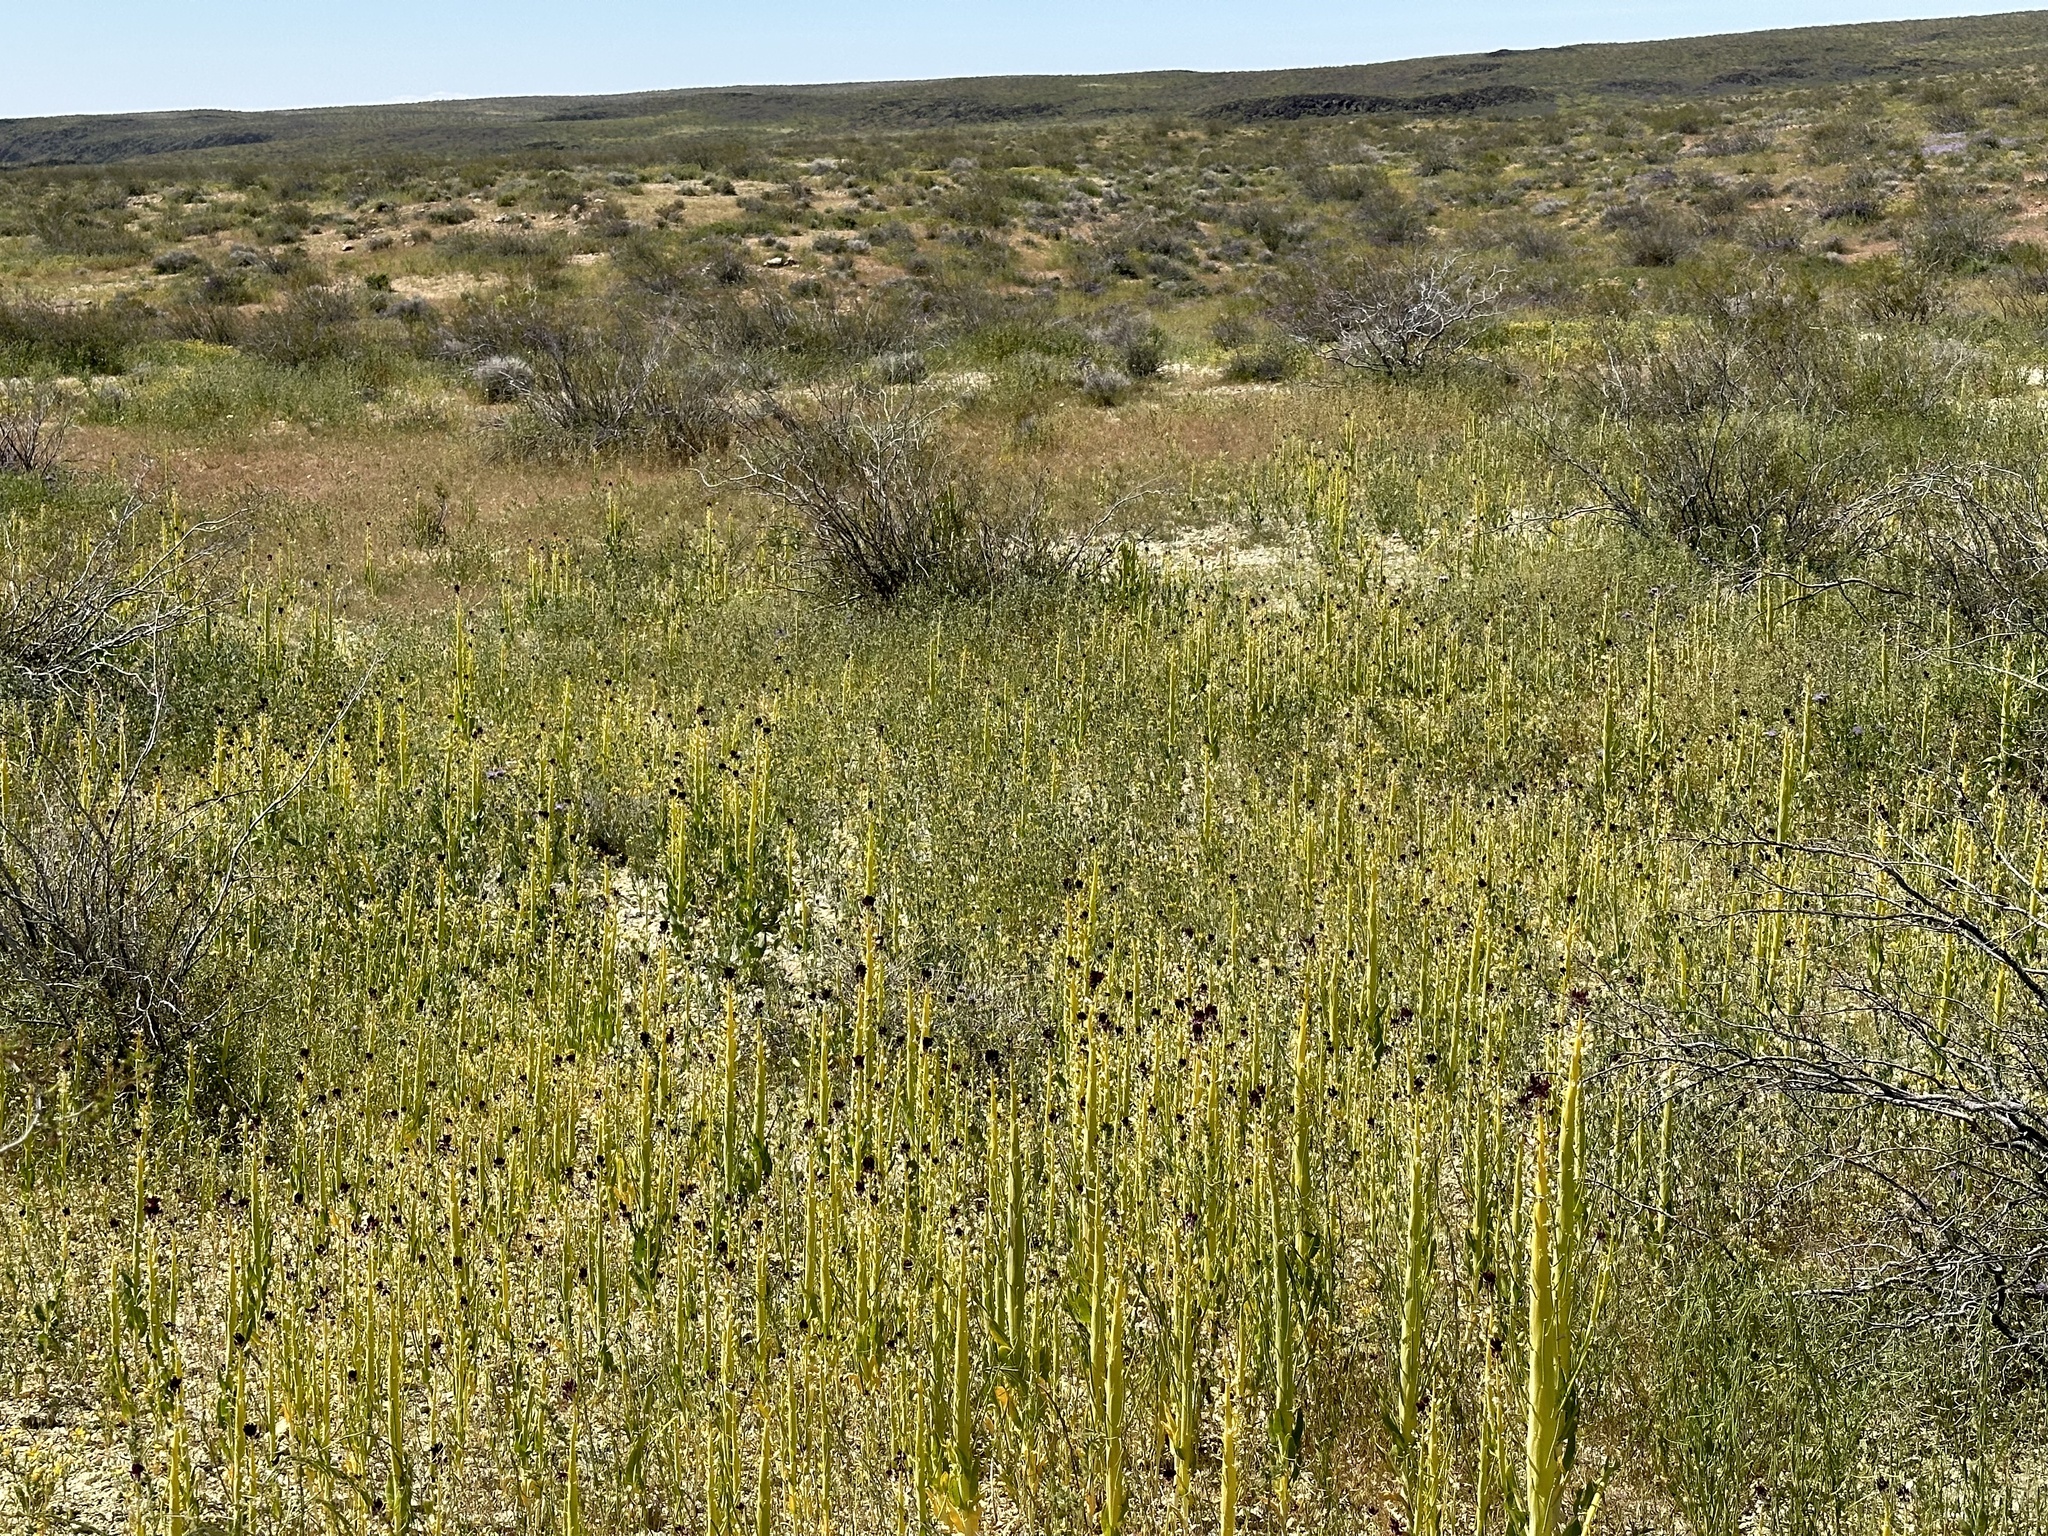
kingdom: Animalia
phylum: Arthropoda
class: Insecta
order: Lepidoptera
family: Sphingidae
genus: Hyles
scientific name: Hyles lineata
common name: White-lined sphinx
